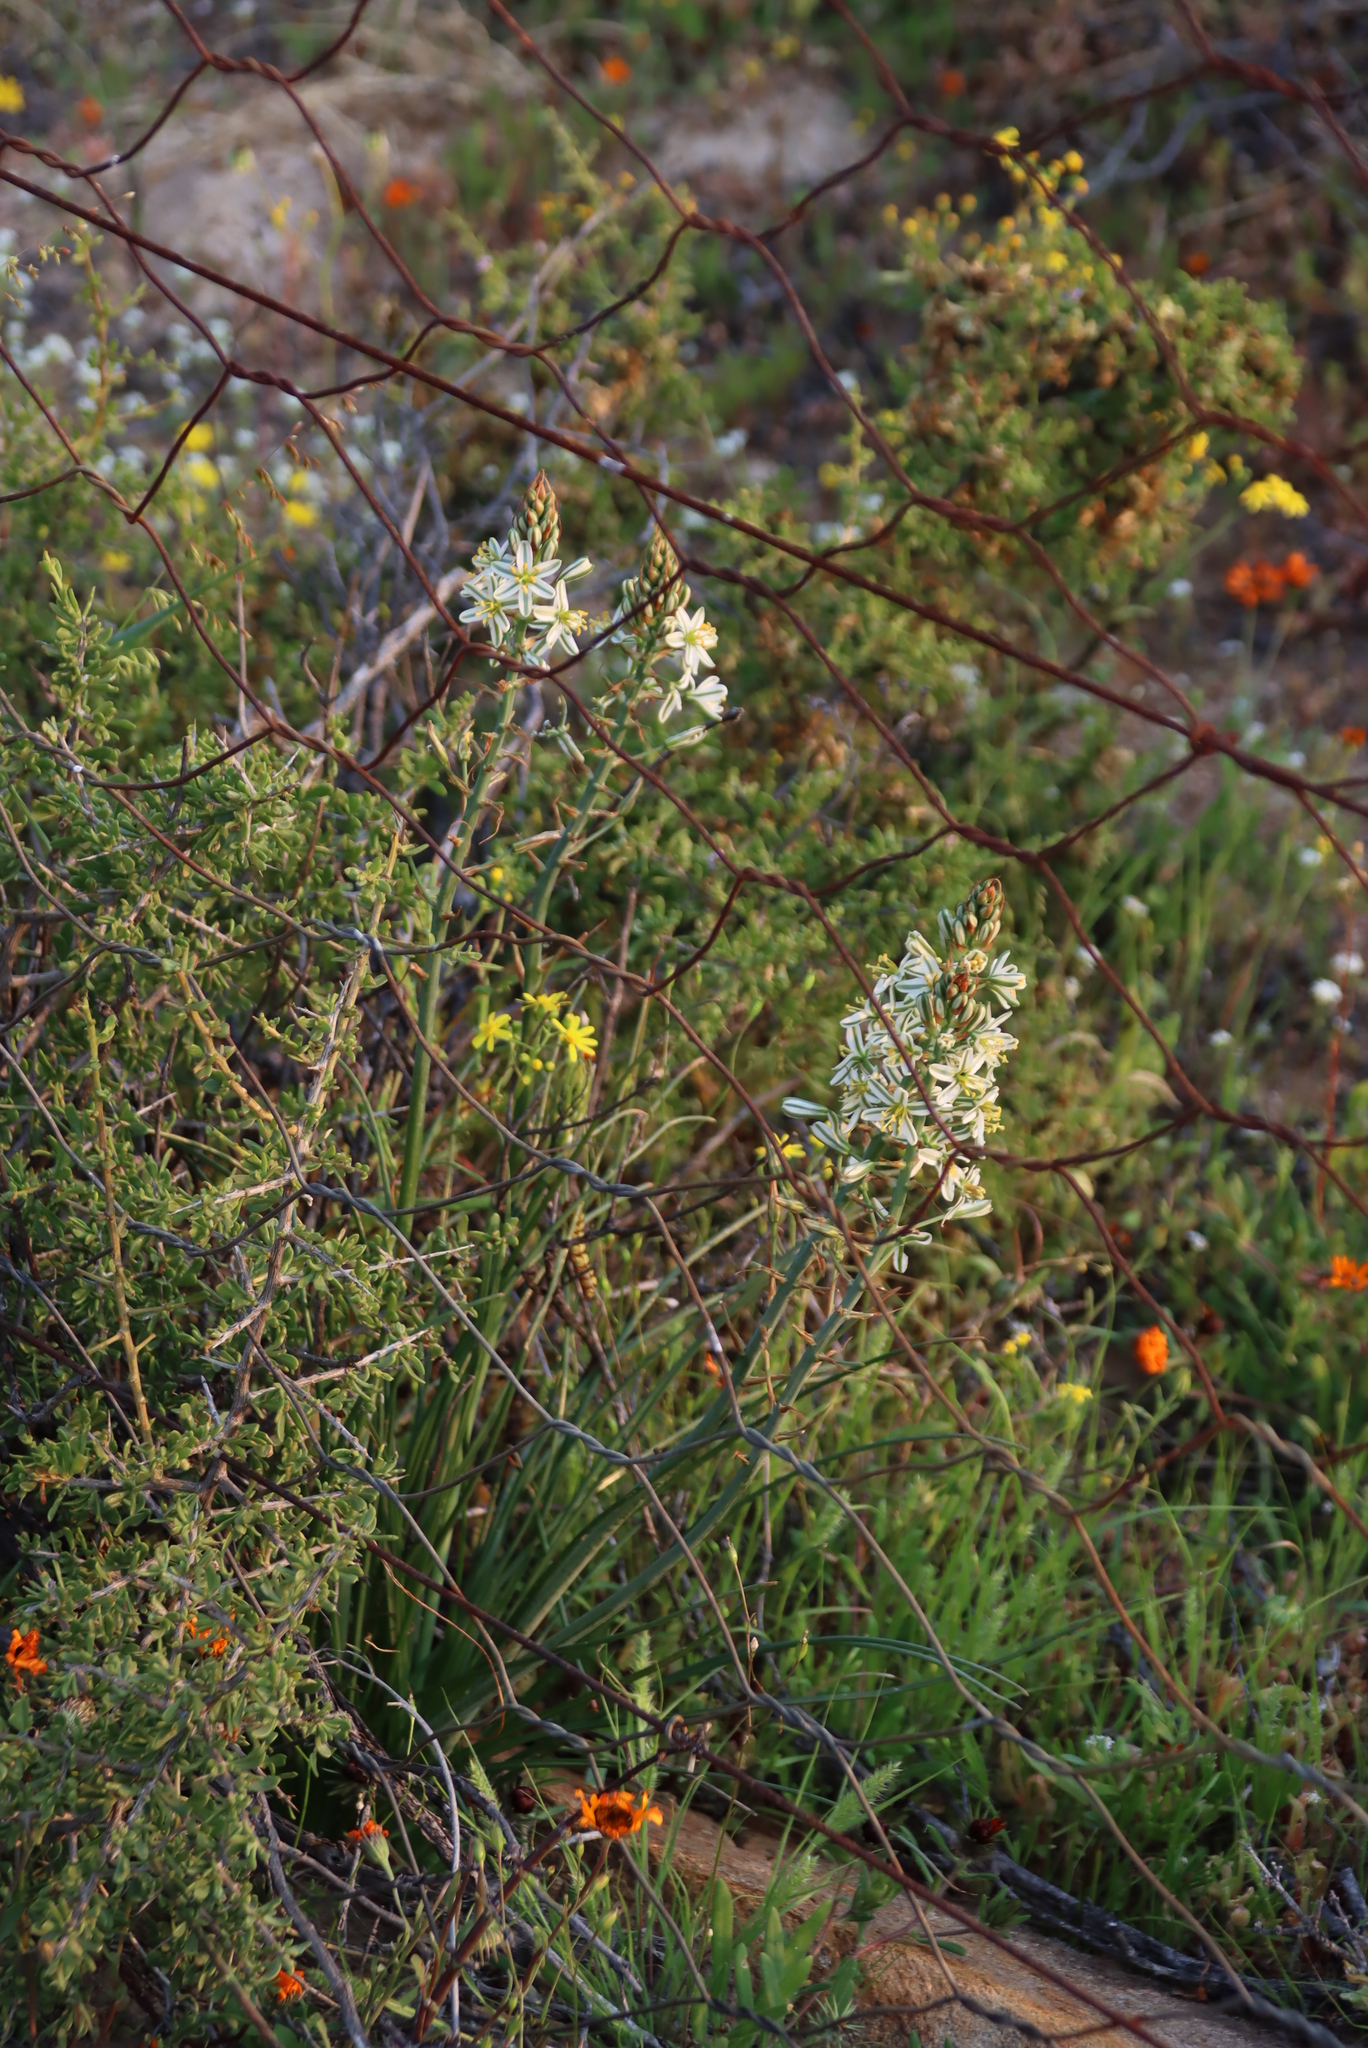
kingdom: Plantae
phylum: Tracheophyta
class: Liliopsida
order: Asparagales
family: Asparagaceae
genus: Albuca
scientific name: Albuca consanguinea
